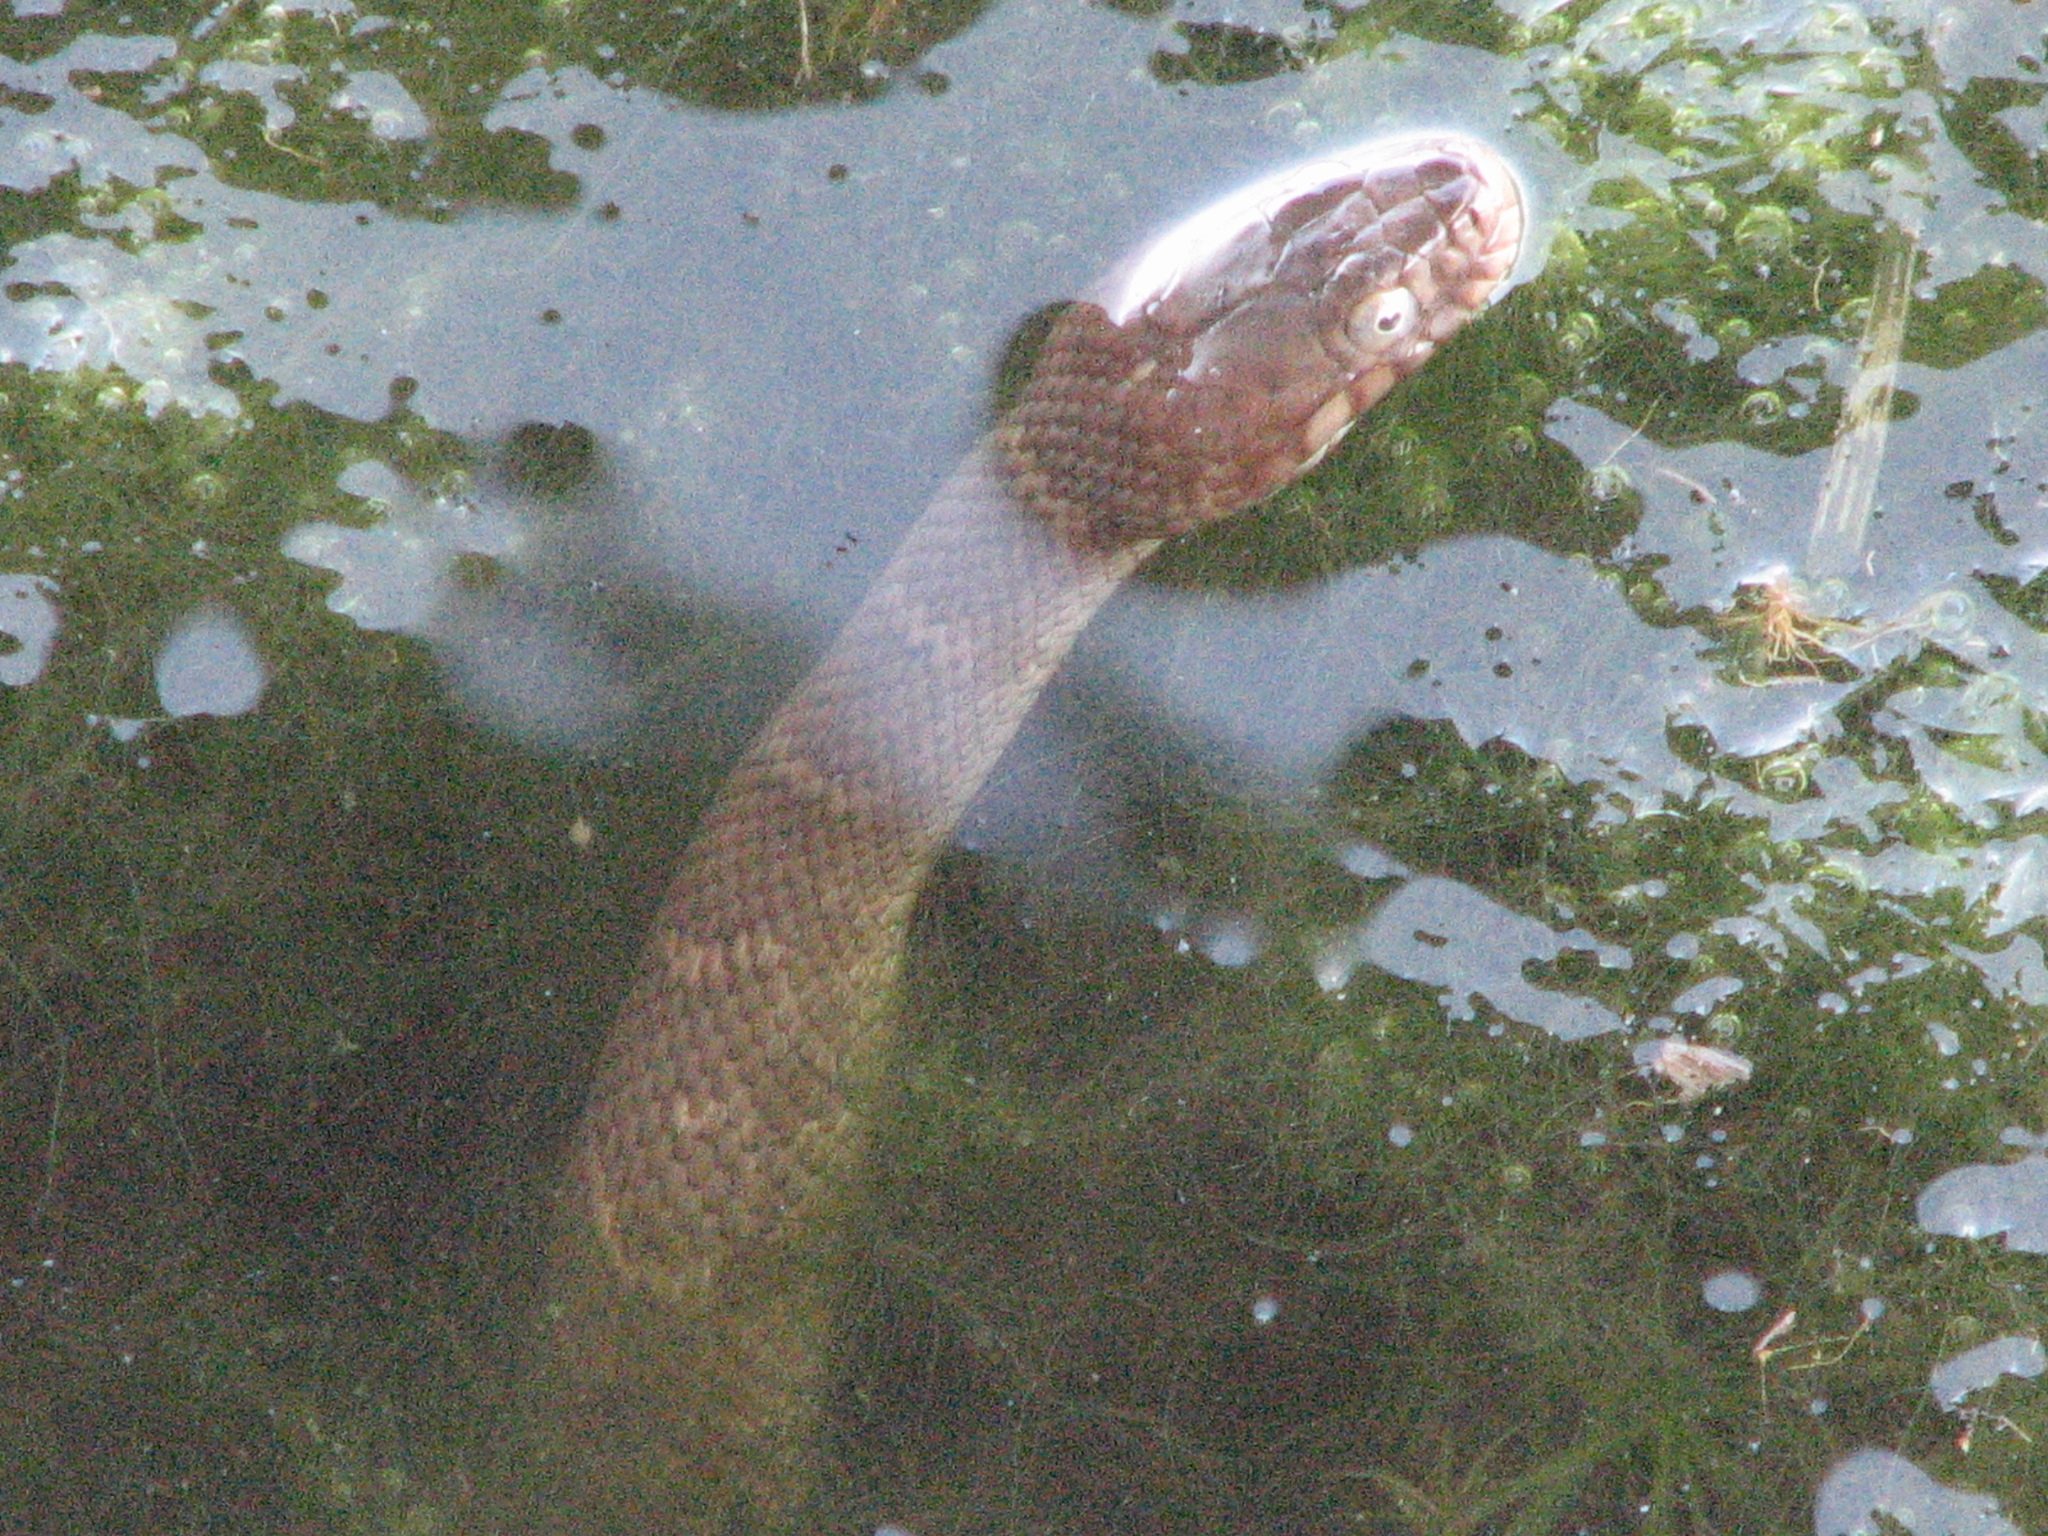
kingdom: Animalia
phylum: Chordata
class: Squamata
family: Colubridae
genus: Nerodia
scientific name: Nerodia erythrogaster
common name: Plainbelly water snake
